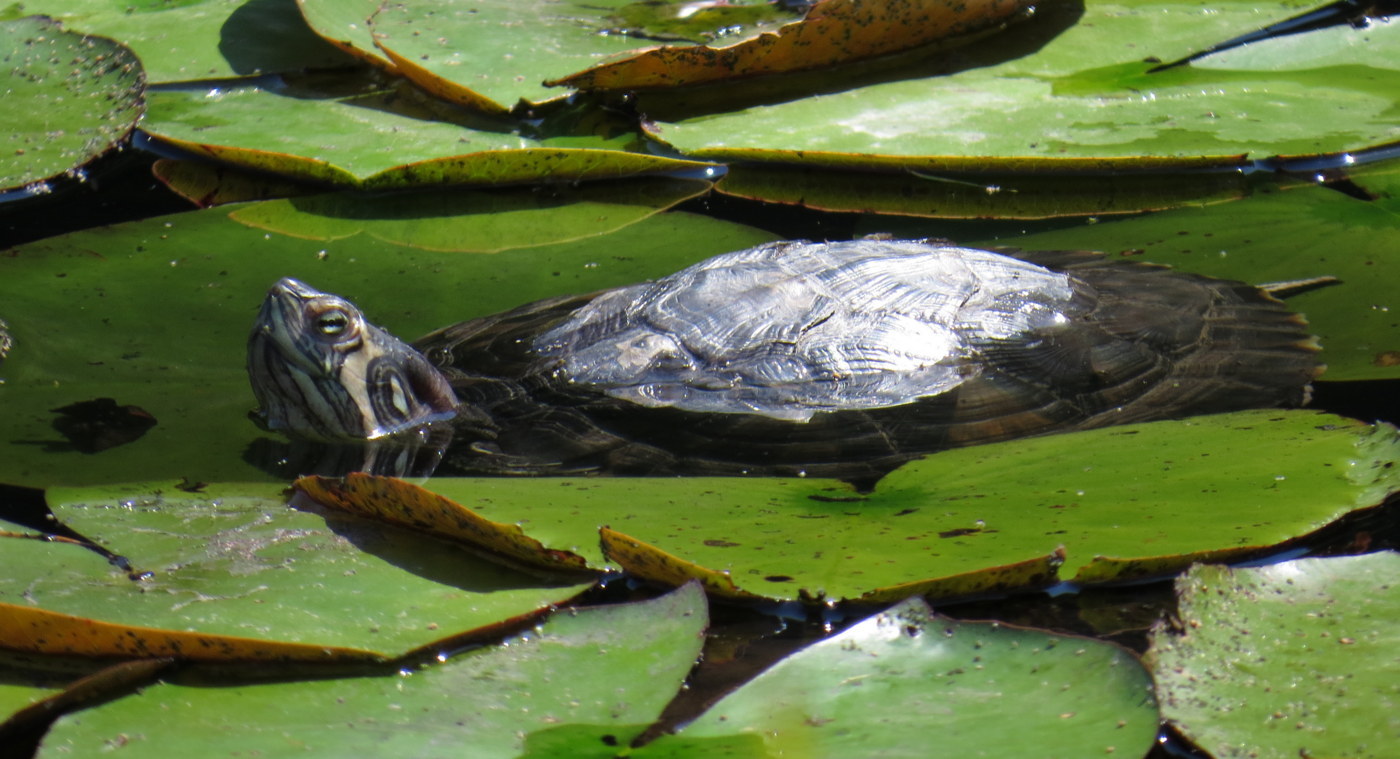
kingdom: Animalia
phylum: Chordata
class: Testudines
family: Emydidae
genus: Trachemys
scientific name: Trachemys scripta
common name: Slider
